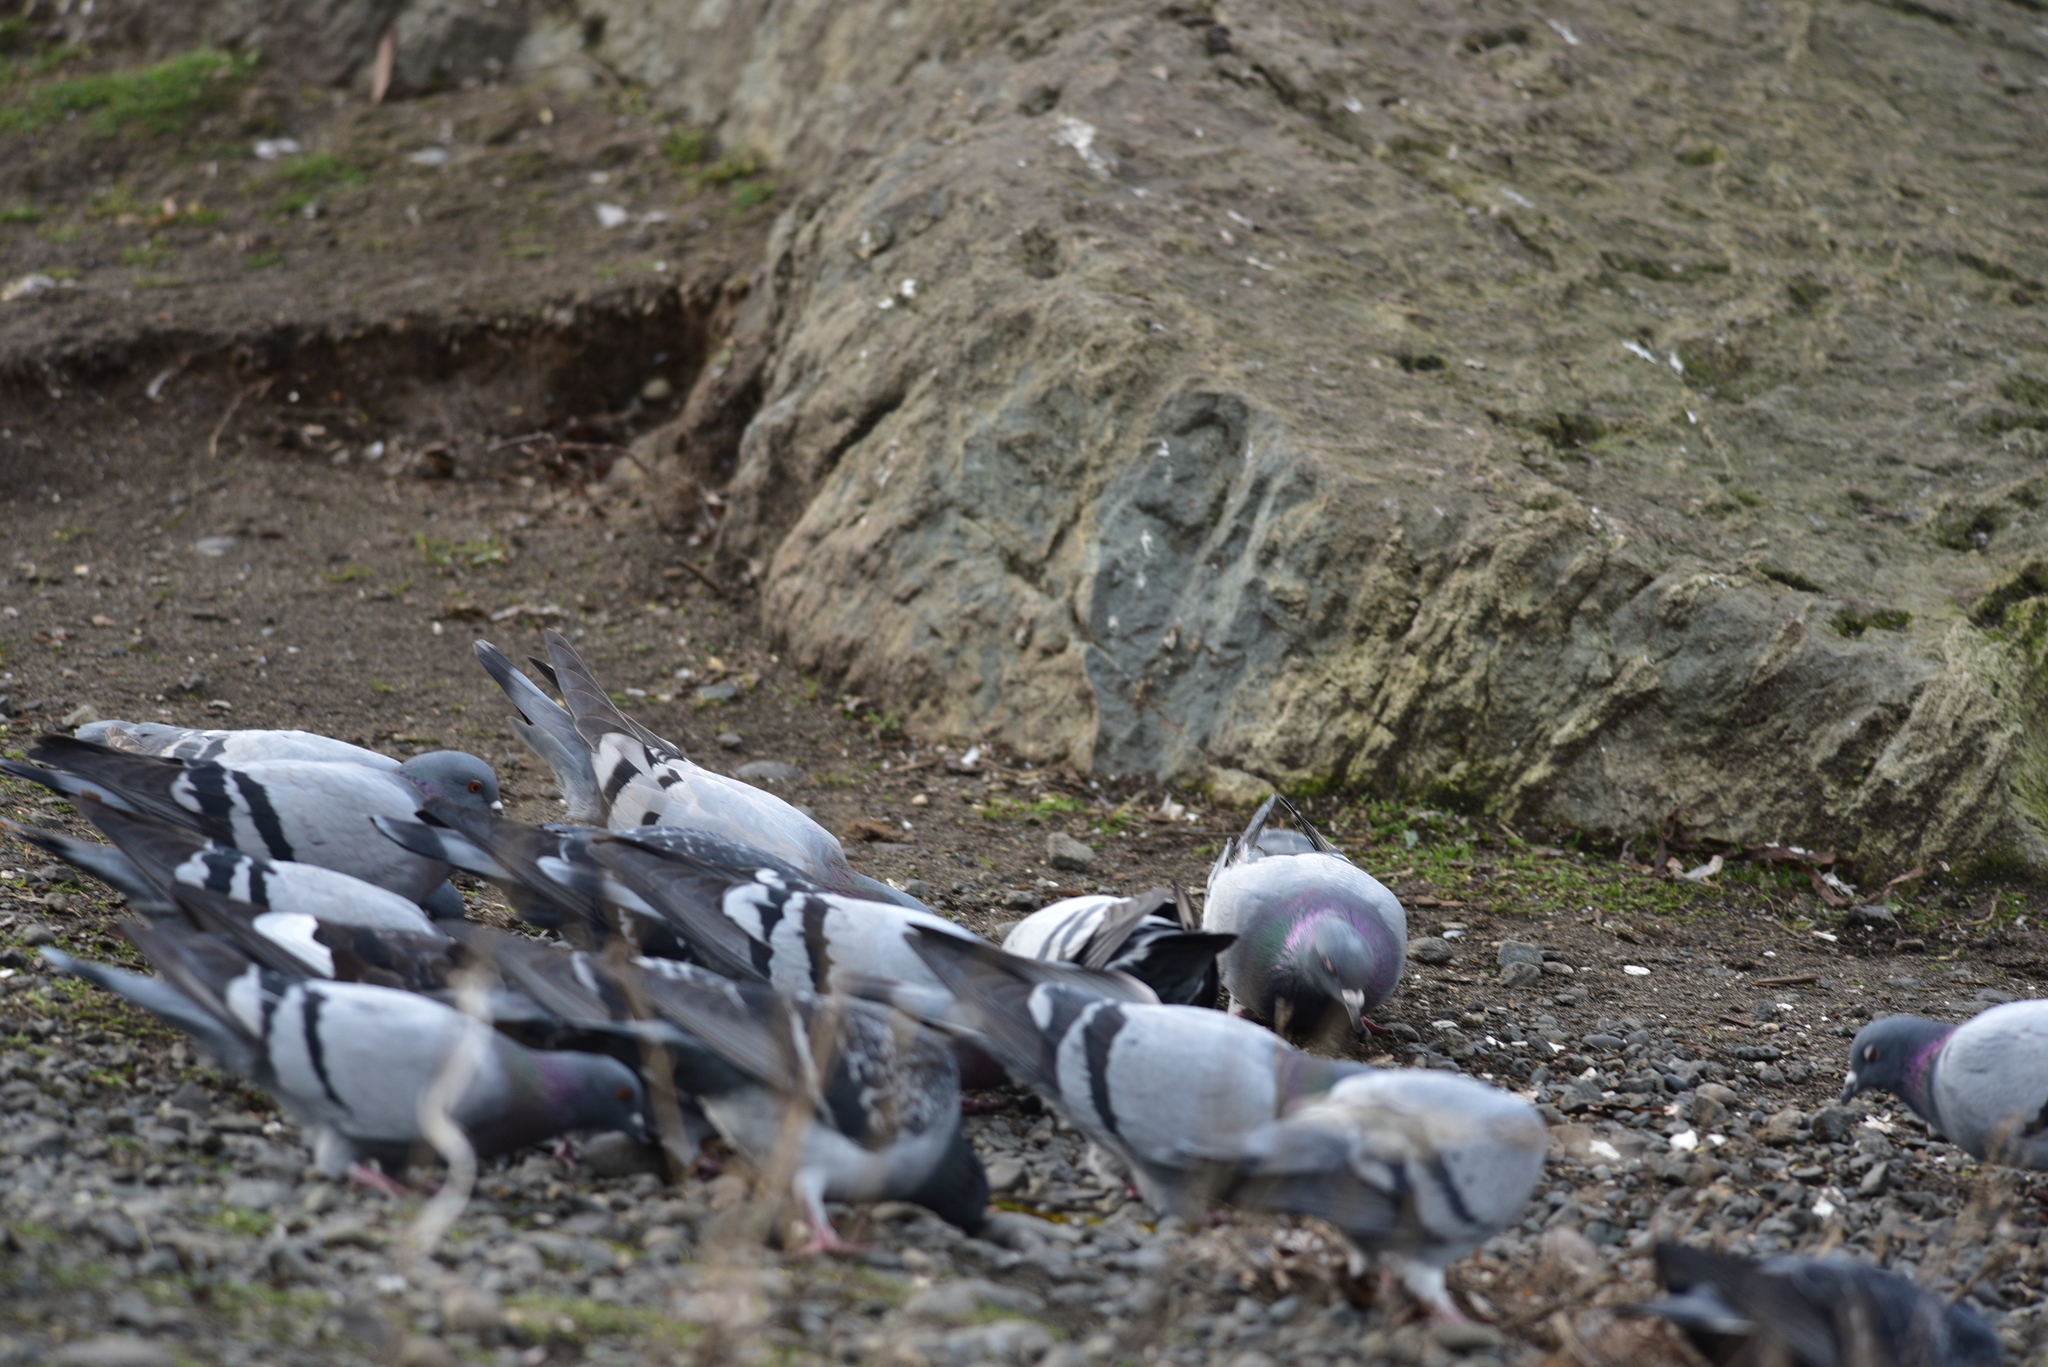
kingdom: Animalia
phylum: Chordata
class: Aves
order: Columbiformes
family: Columbidae
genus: Columba
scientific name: Columba livia
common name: Rock pigeon
